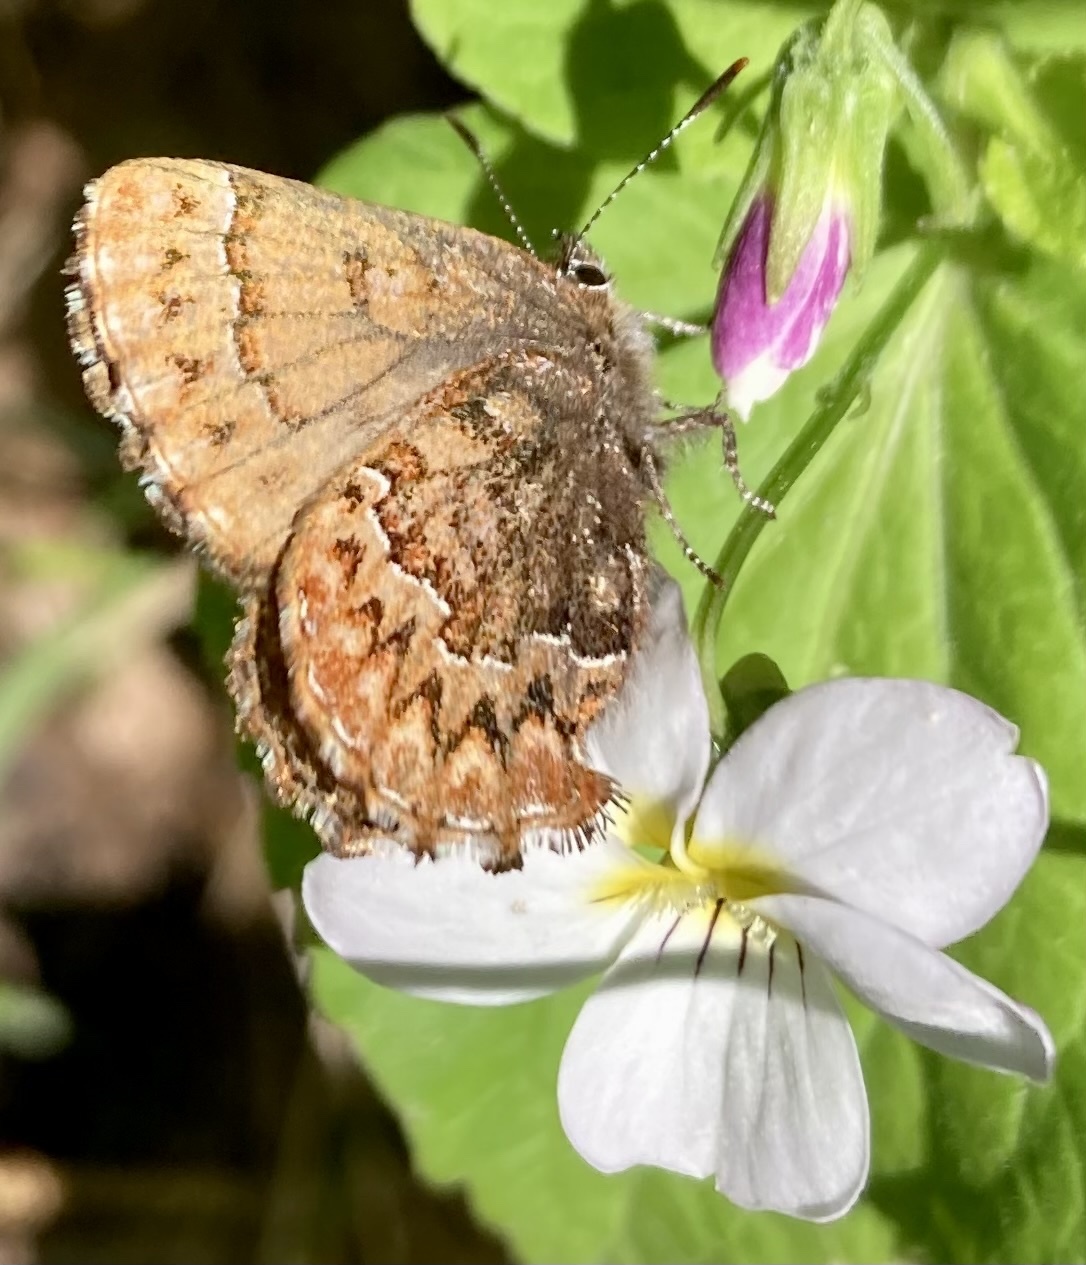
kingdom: Animalia
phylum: Arthropoda
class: Insecta
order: Lepidoptera
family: Lycaenidae
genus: Incisalia
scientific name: Incisalia eryphon
